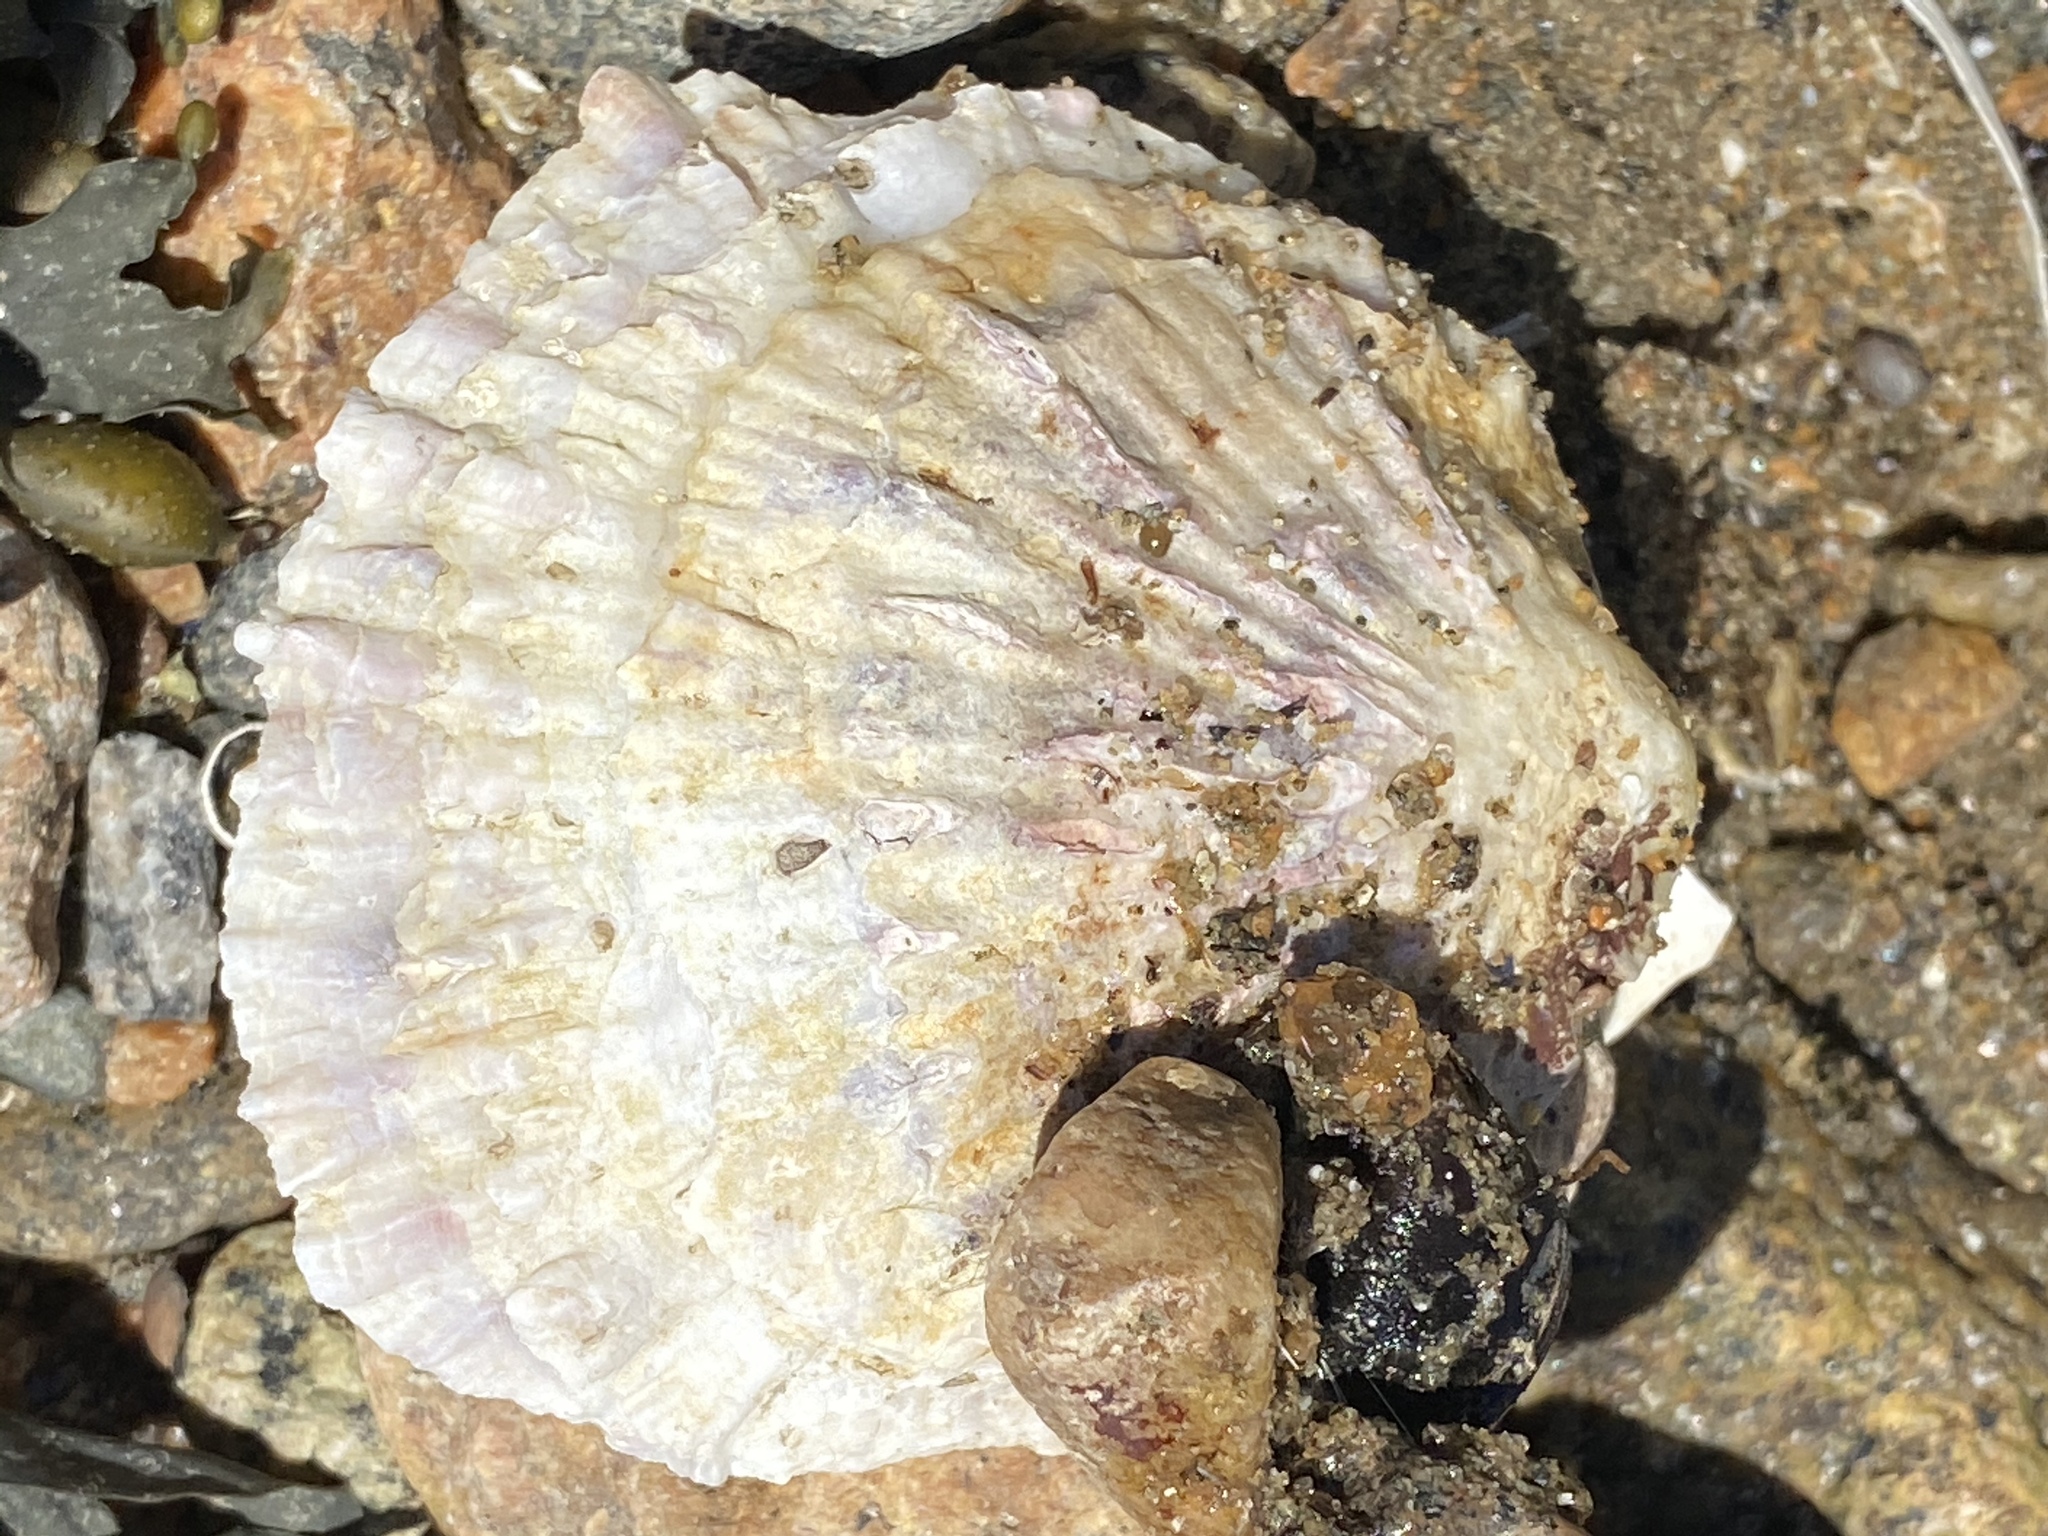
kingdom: Animalia
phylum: Mollusca
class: Bivalvia
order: Ostreida
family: Ostreidae
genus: Ostrea
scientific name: Ostrea edulis
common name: Flat oyster
